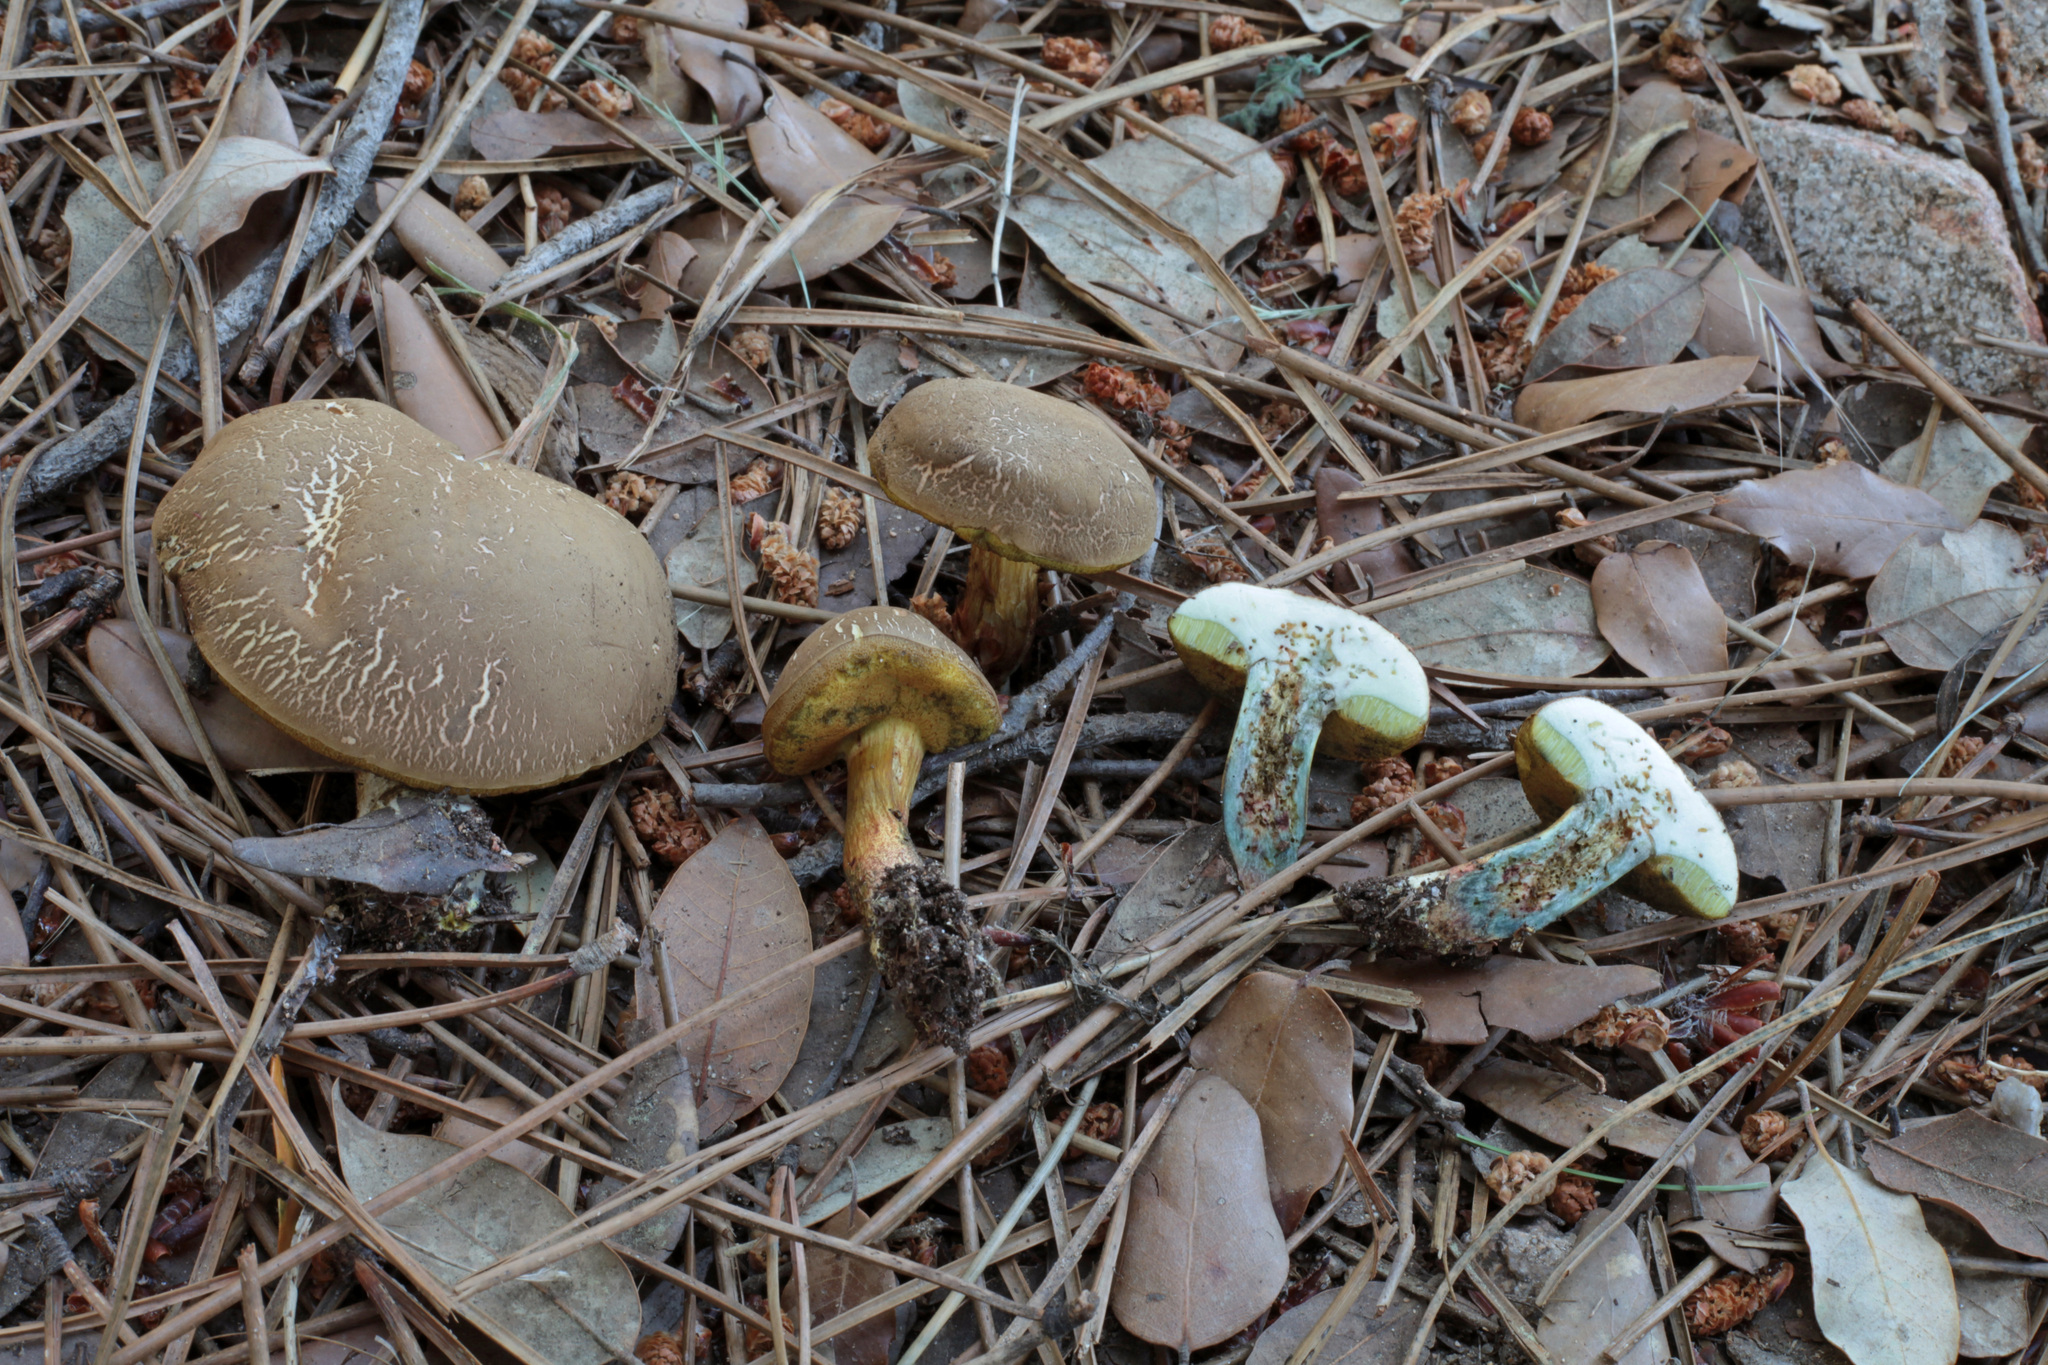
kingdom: Fungi
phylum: Basidiomycota
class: Agaricomycetes
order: Boletales
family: Boletaceae
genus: Xerocomellus
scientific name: Xerocomellus cisalpinus
